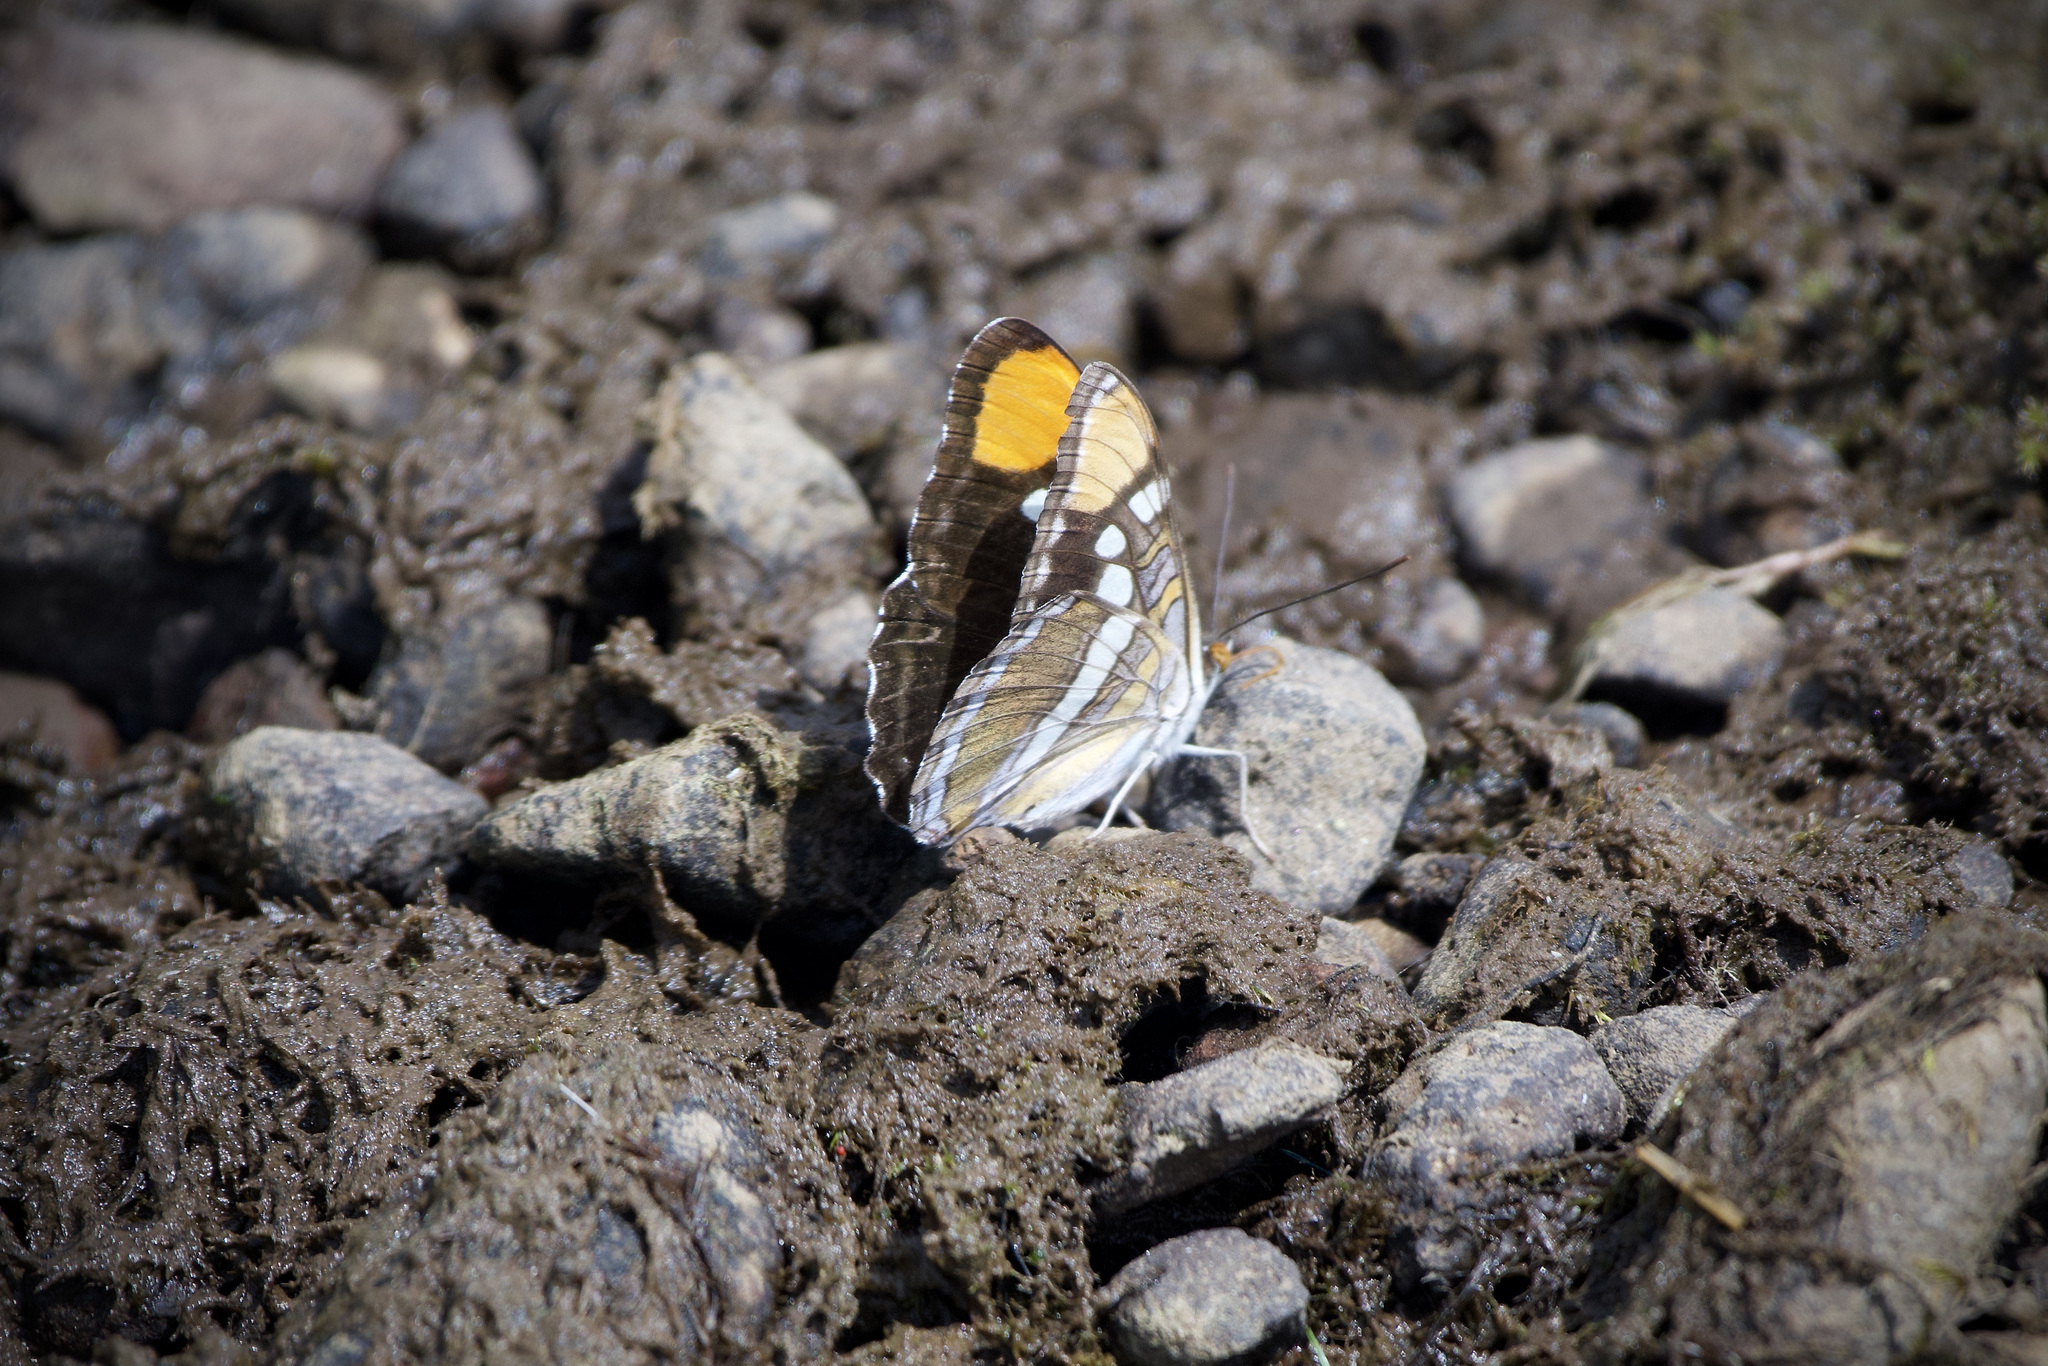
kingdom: Animalia
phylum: Arthropoda
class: Insecta
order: Lepidoptera
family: Nymphalidae
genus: Limenitis
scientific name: Limenitis bredowii
